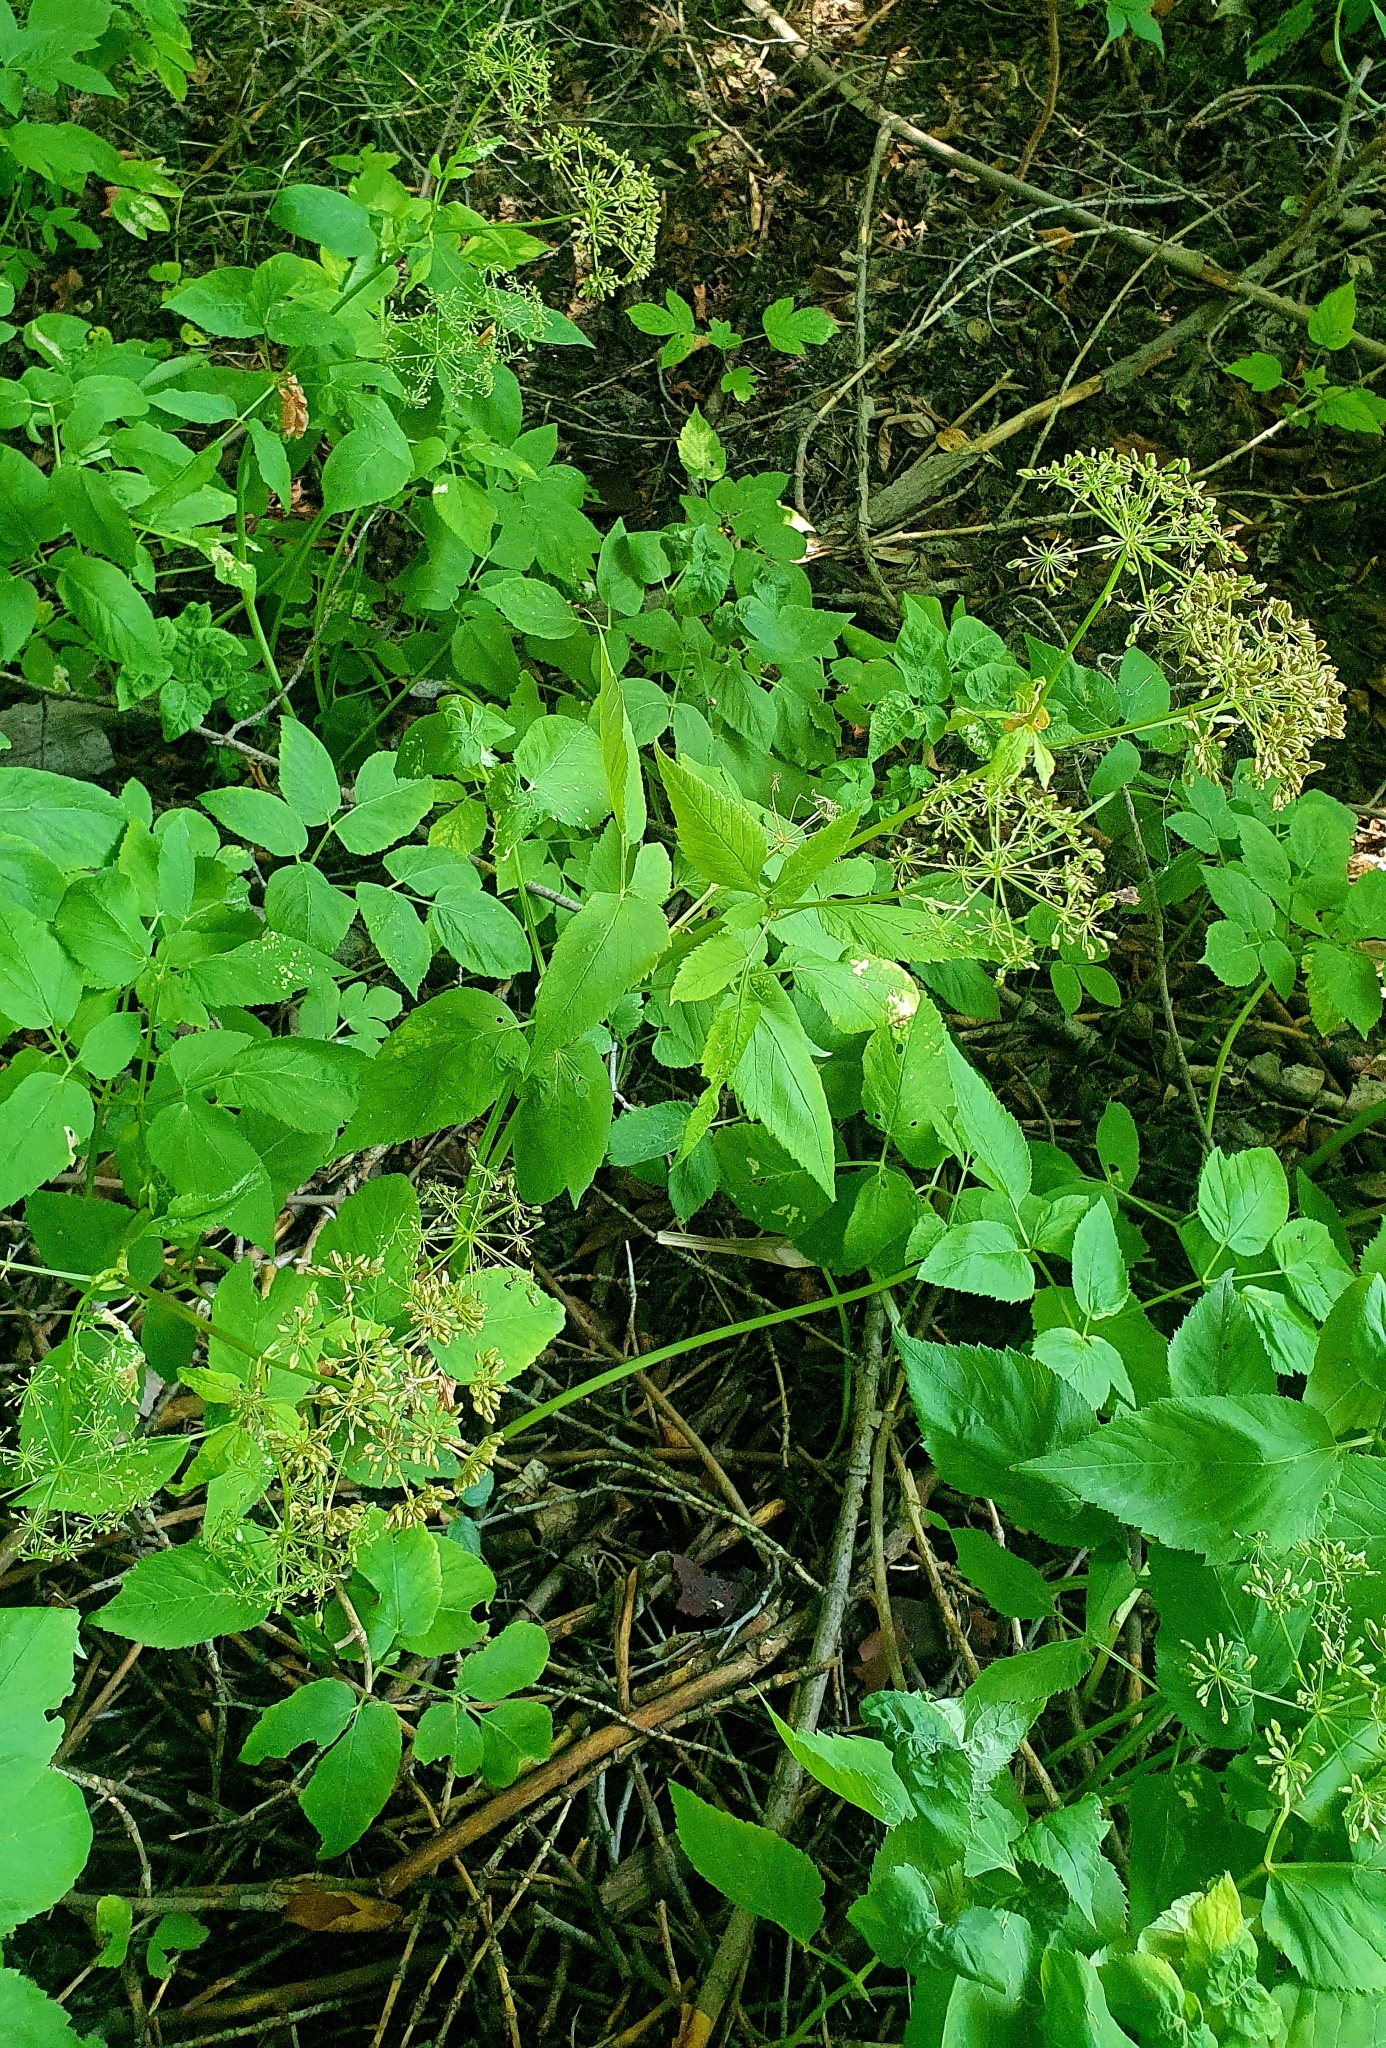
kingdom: Plantae
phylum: Tracheophyta
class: Magnoliopsida
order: Apiales
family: Apiaceae
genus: Aegopodium
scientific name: Aegopodium podagraria
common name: Ground-elder
